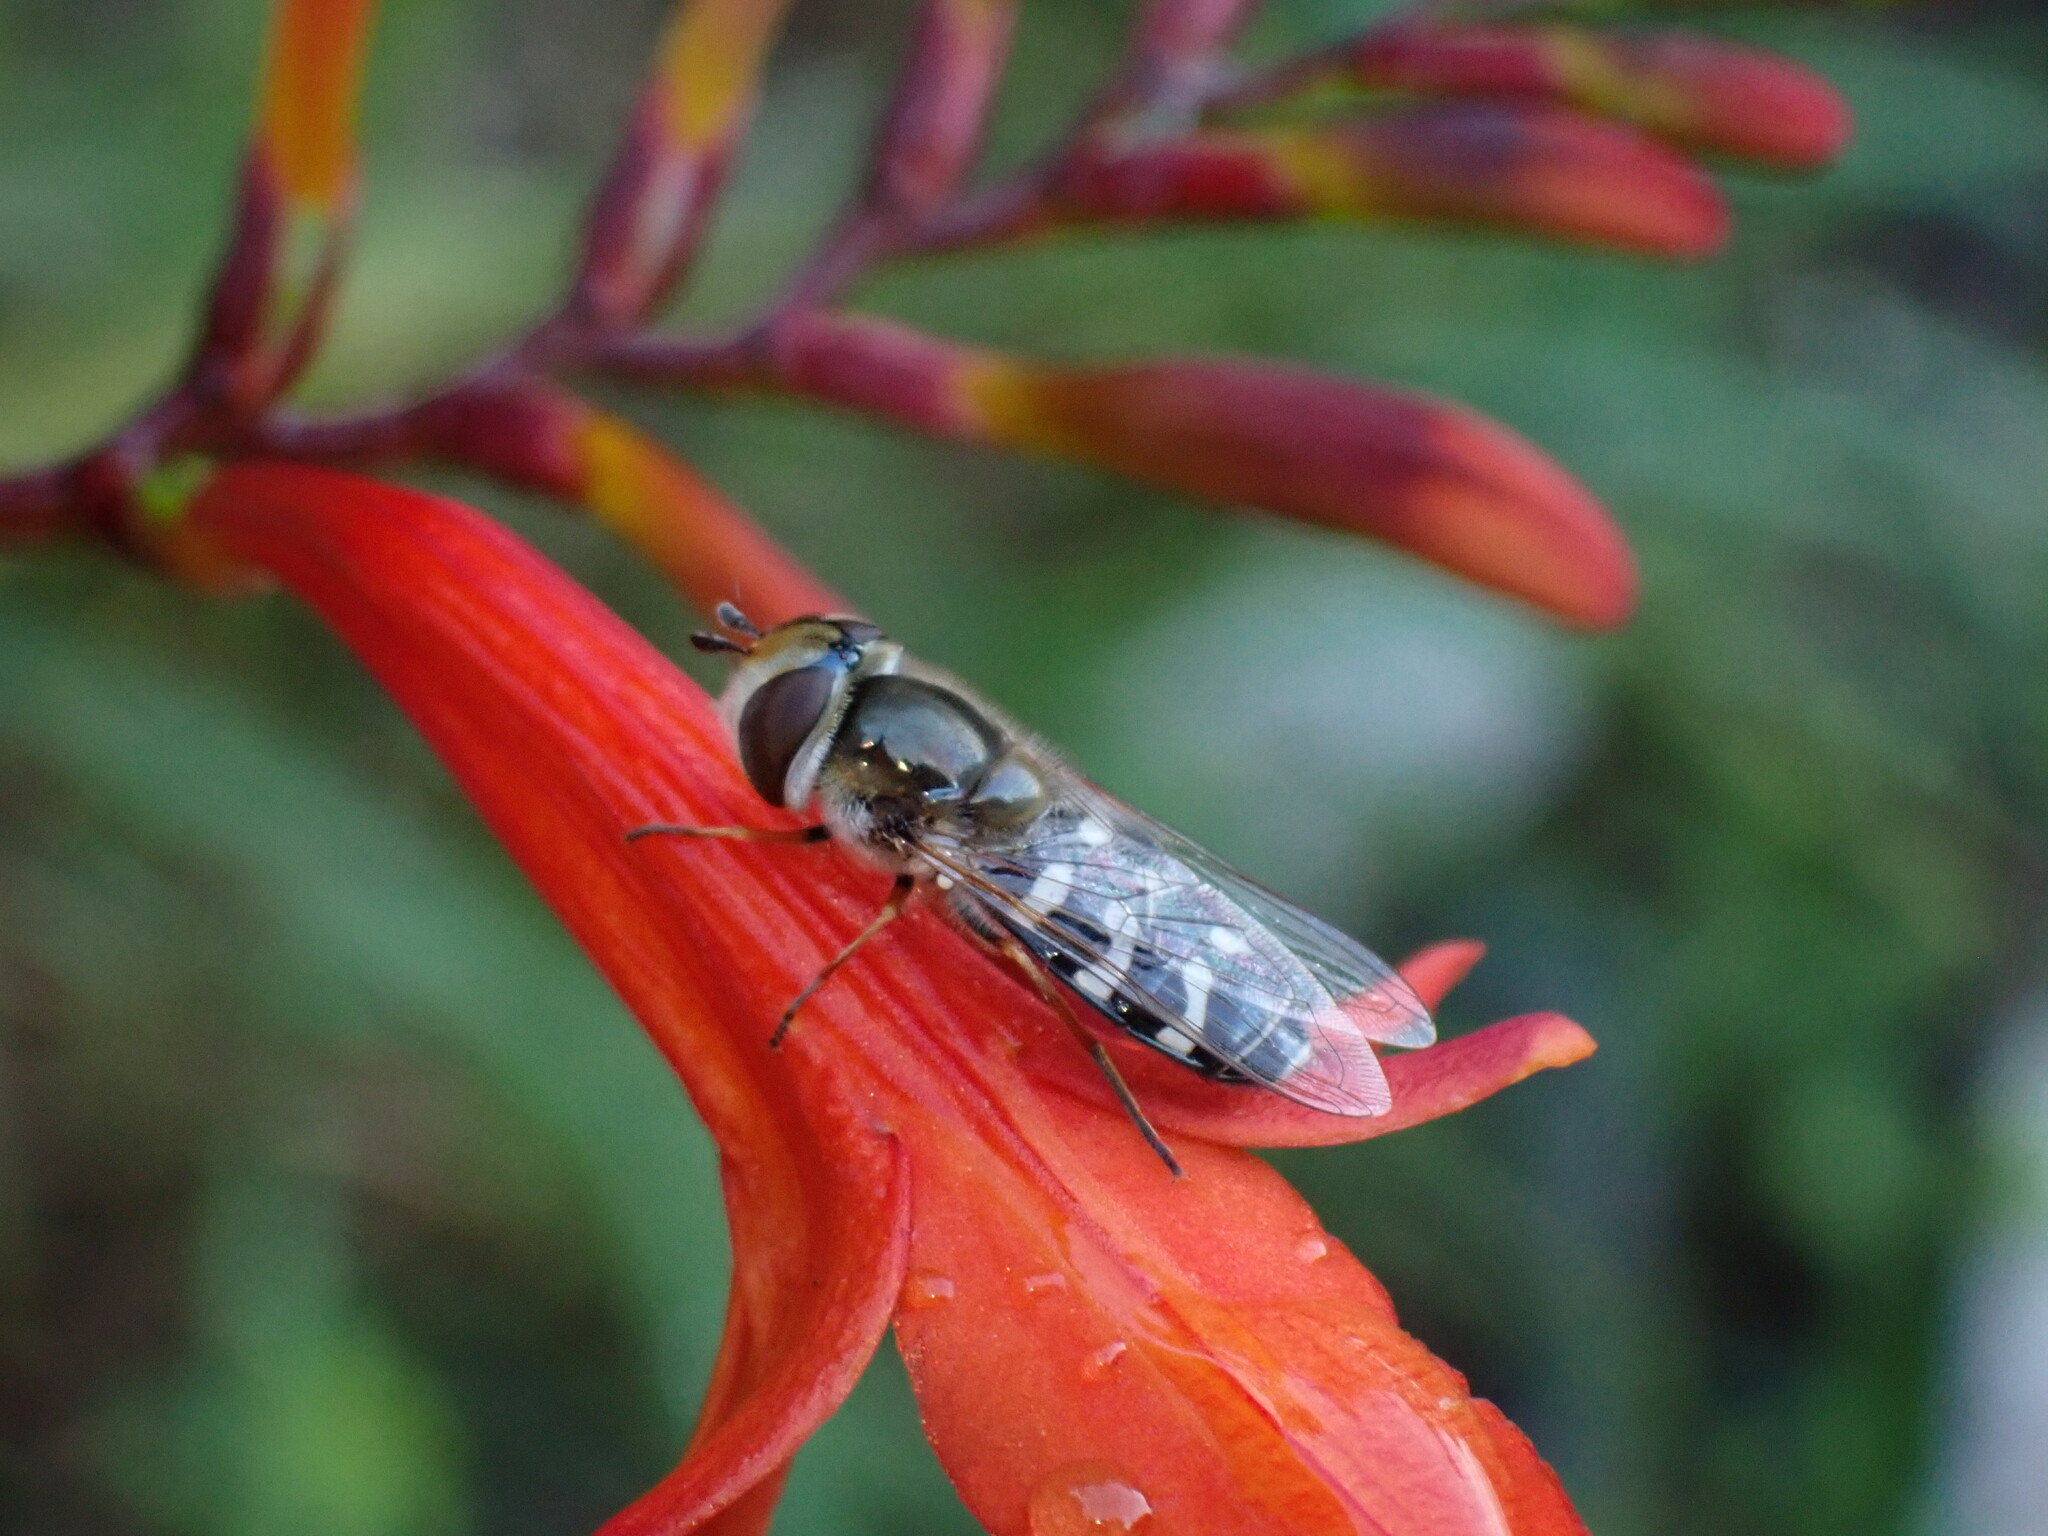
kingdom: Animalia
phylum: Arthropoda
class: Insecta
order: Diptera
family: Syrphidae
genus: Scaeva
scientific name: Scaeva pyrastri
